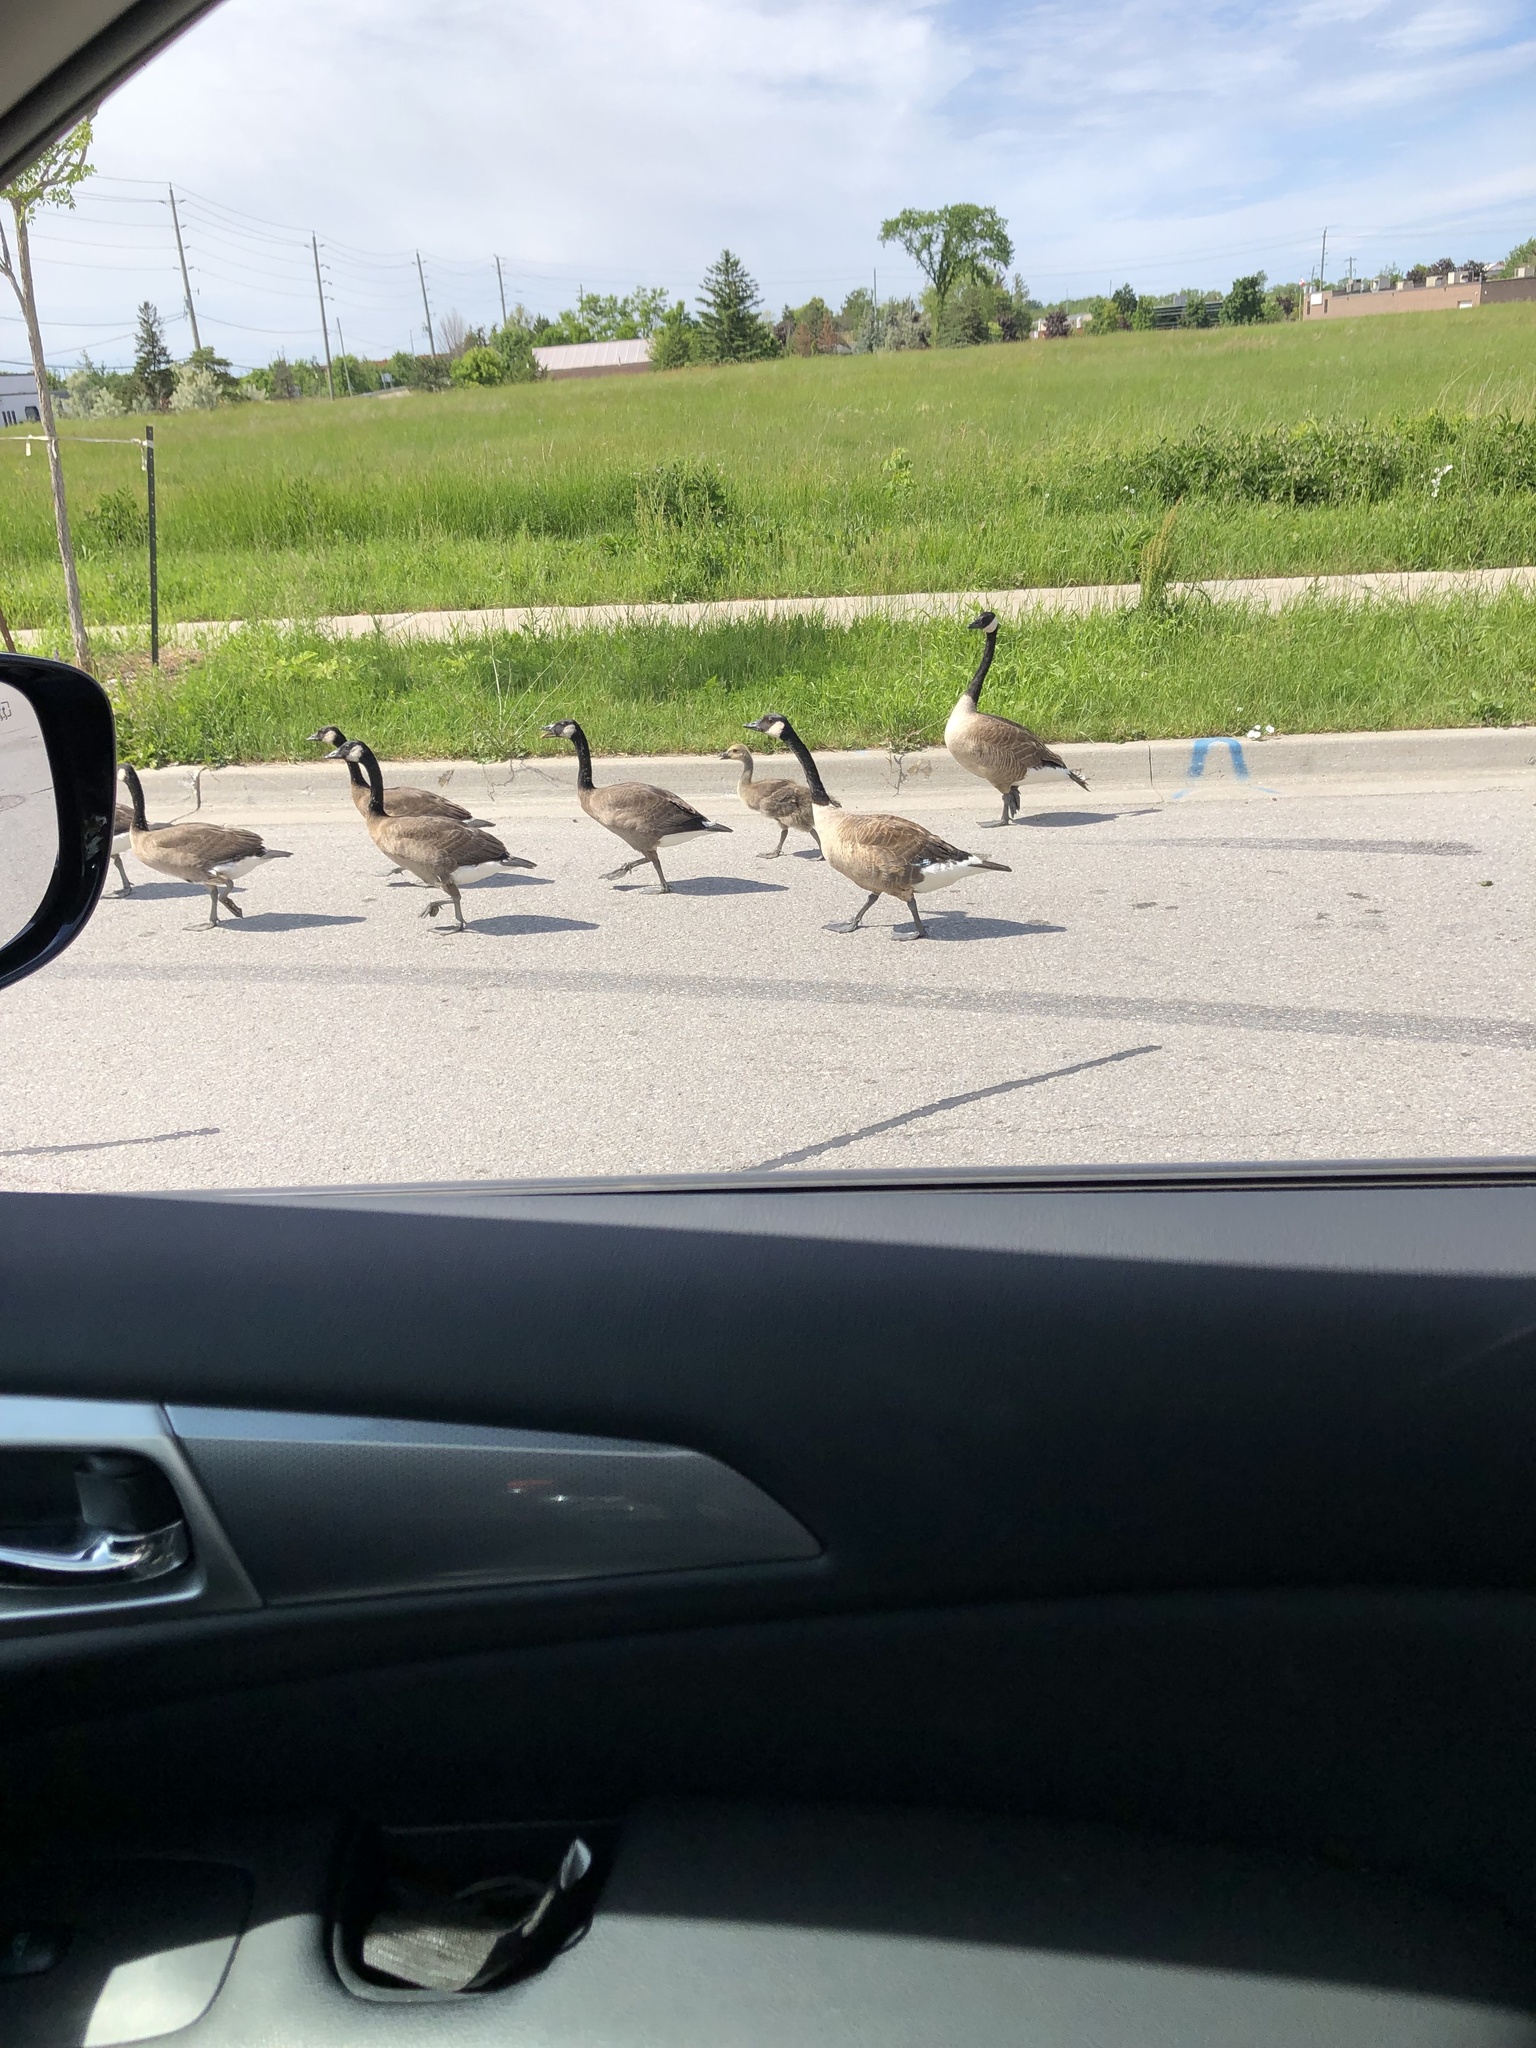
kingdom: Animalia
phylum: Chordata
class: Aves
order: Anseriformes
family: Anatidae
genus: Branta
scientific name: Branta canadensis
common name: Canada goose
